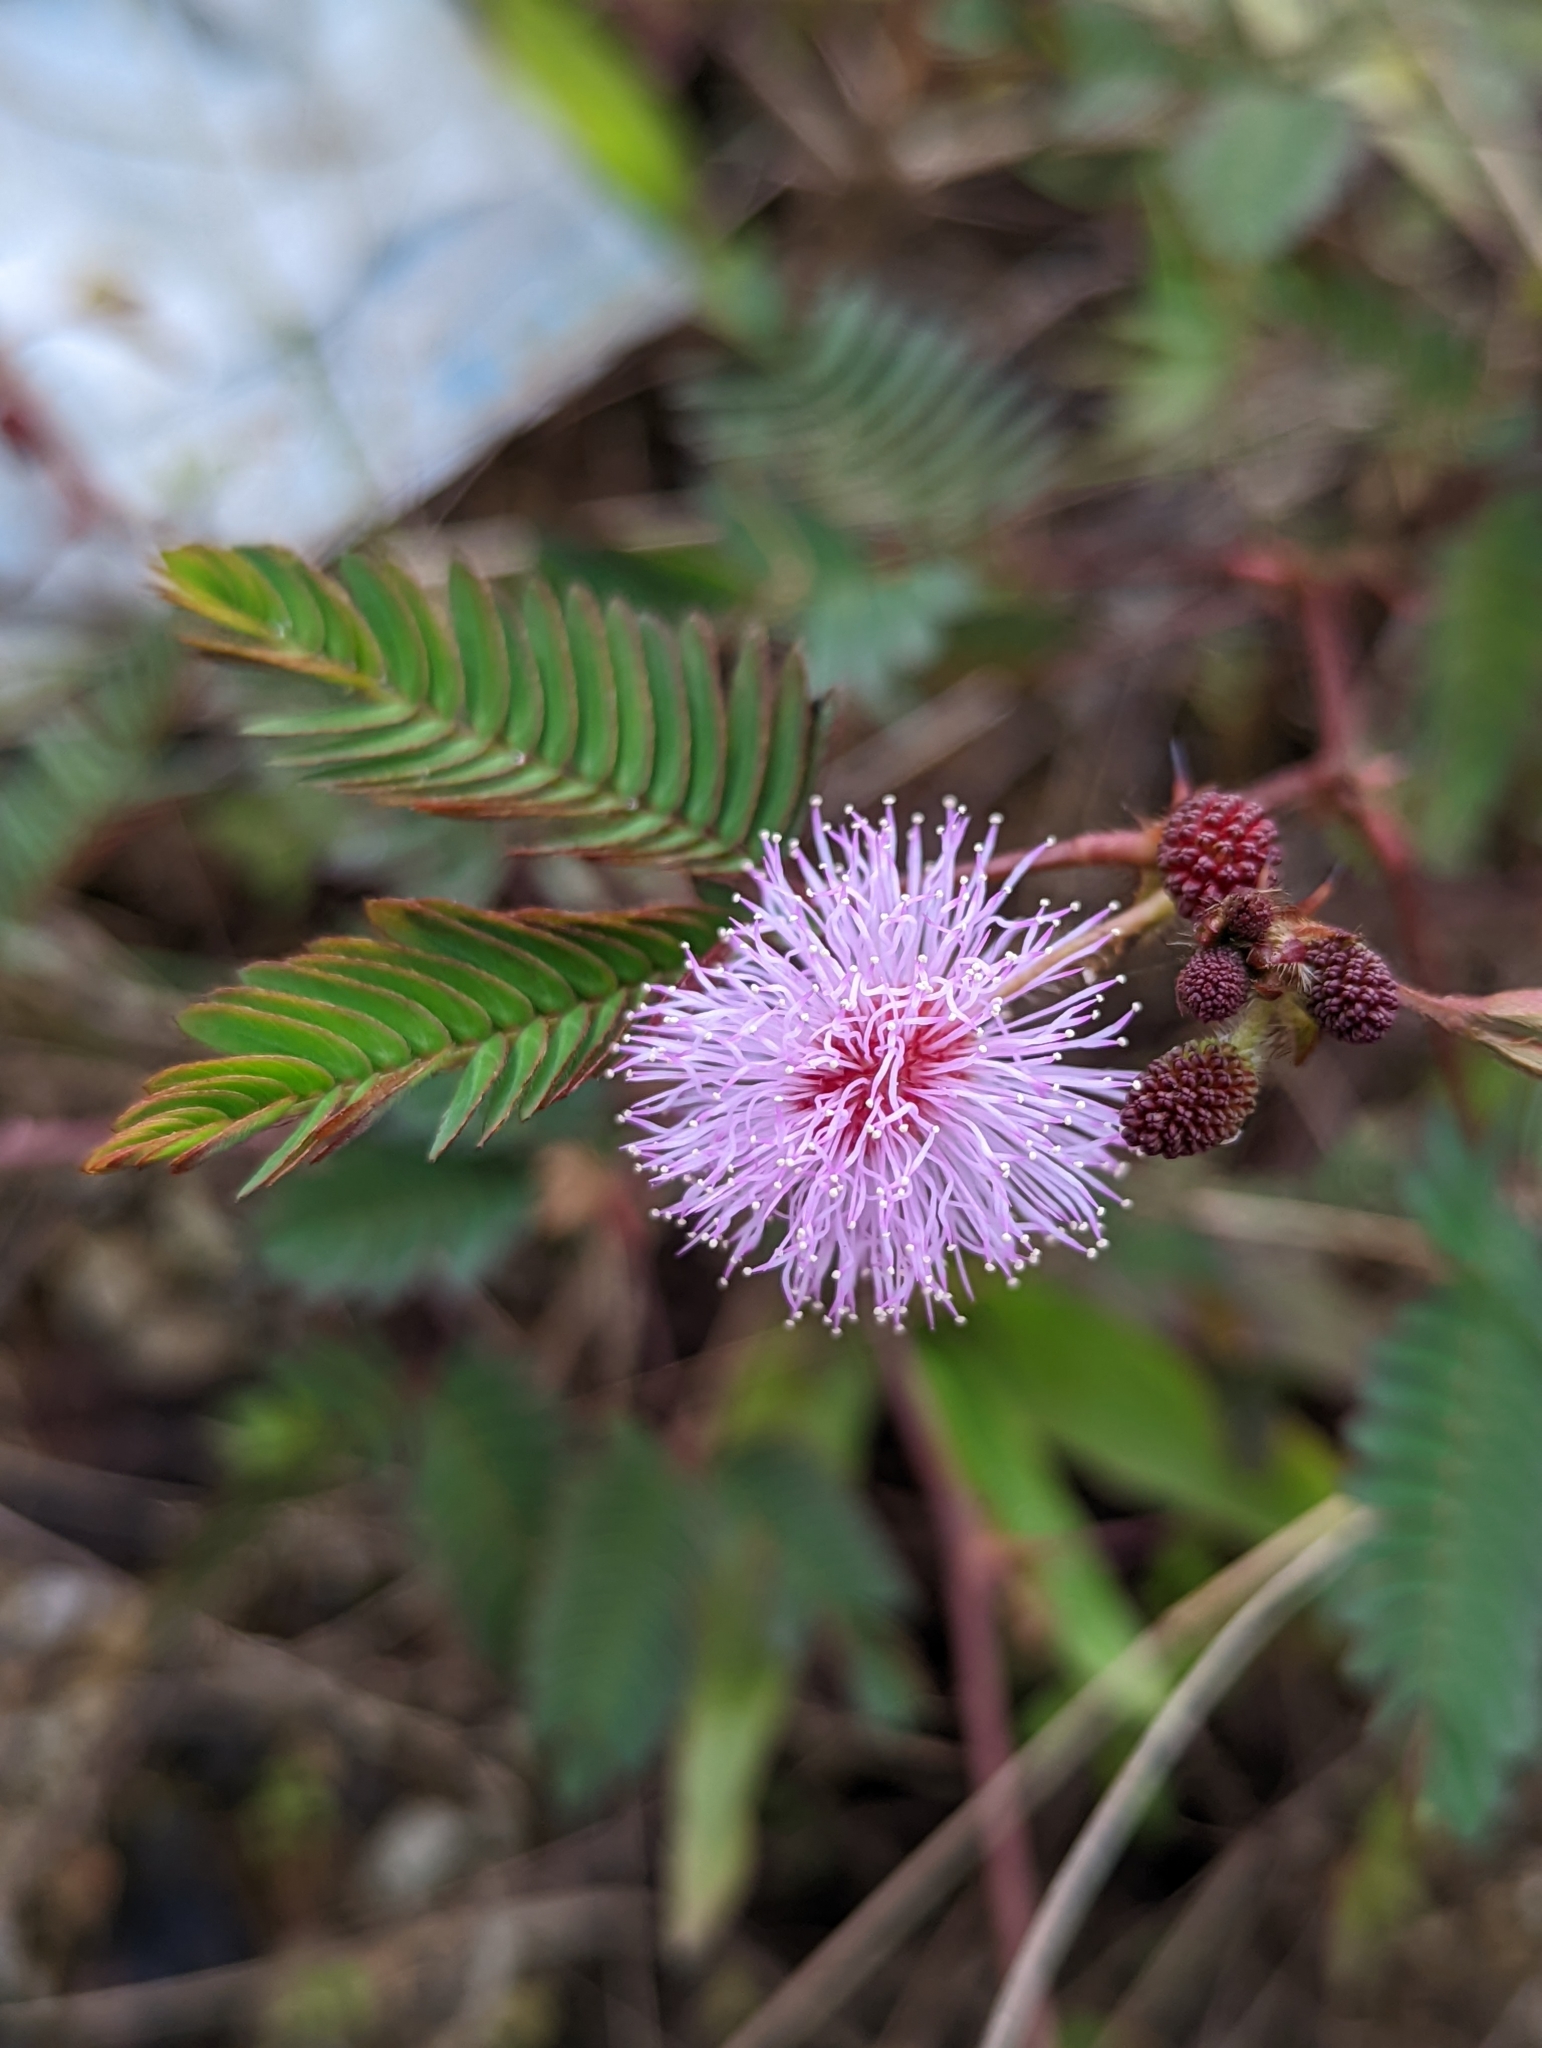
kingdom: Plantae
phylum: Tracheophyta
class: Magnoliopsida
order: Fabales
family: Fabaceae
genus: Mimosa
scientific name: Mimosa pudica
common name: Sensitive plant
